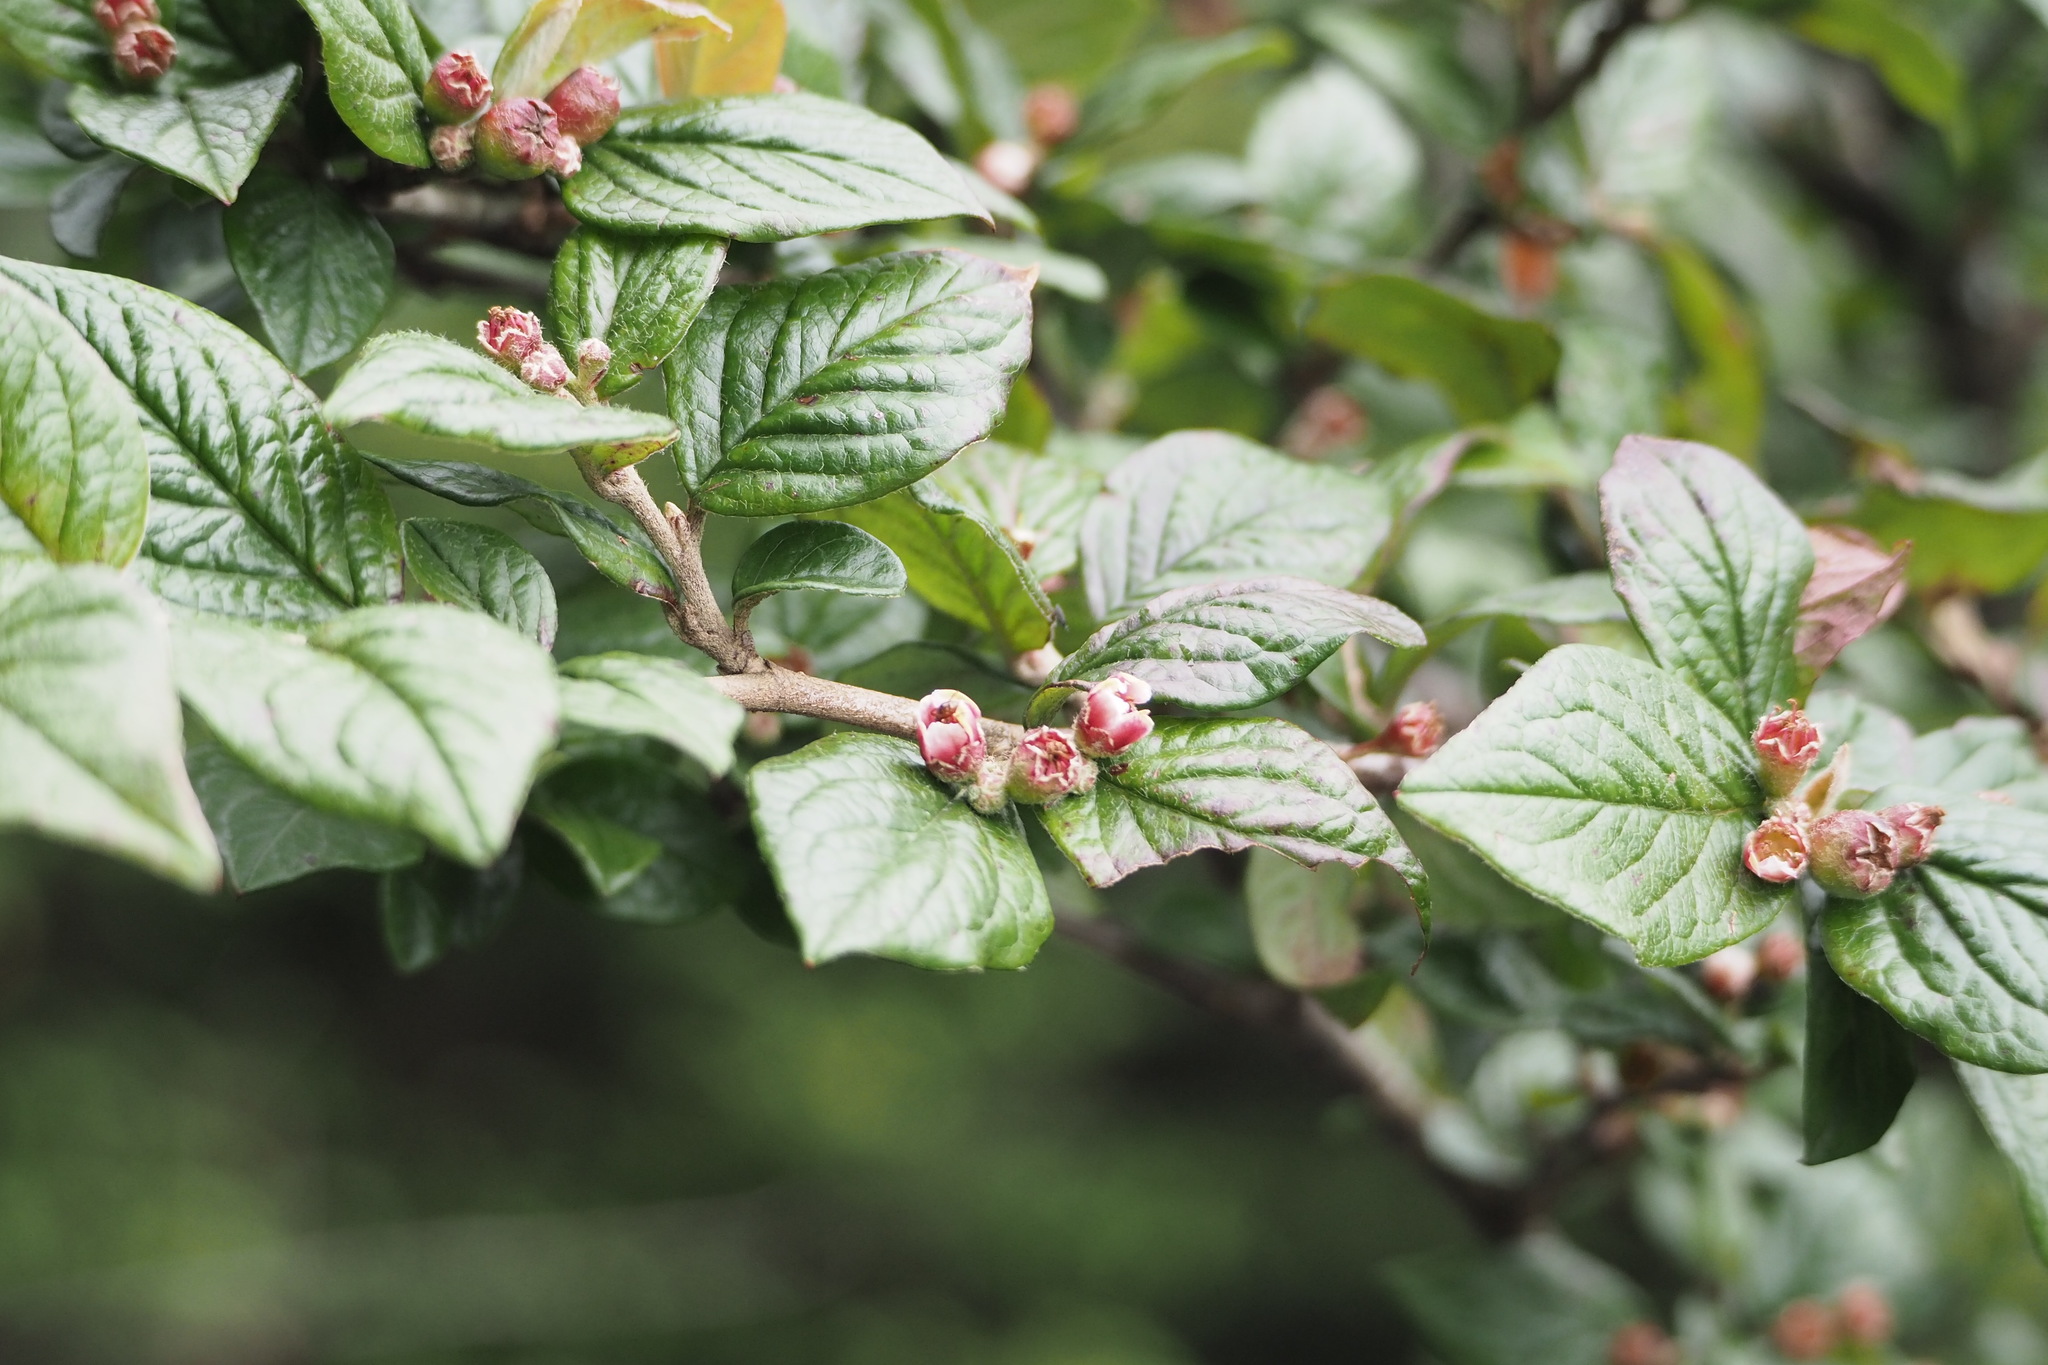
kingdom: Plantae
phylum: Tracheophyta
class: Magnoliopsida
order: Rosales
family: Rosaceae
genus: Cotoneaster
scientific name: Cotoneaster konishii
